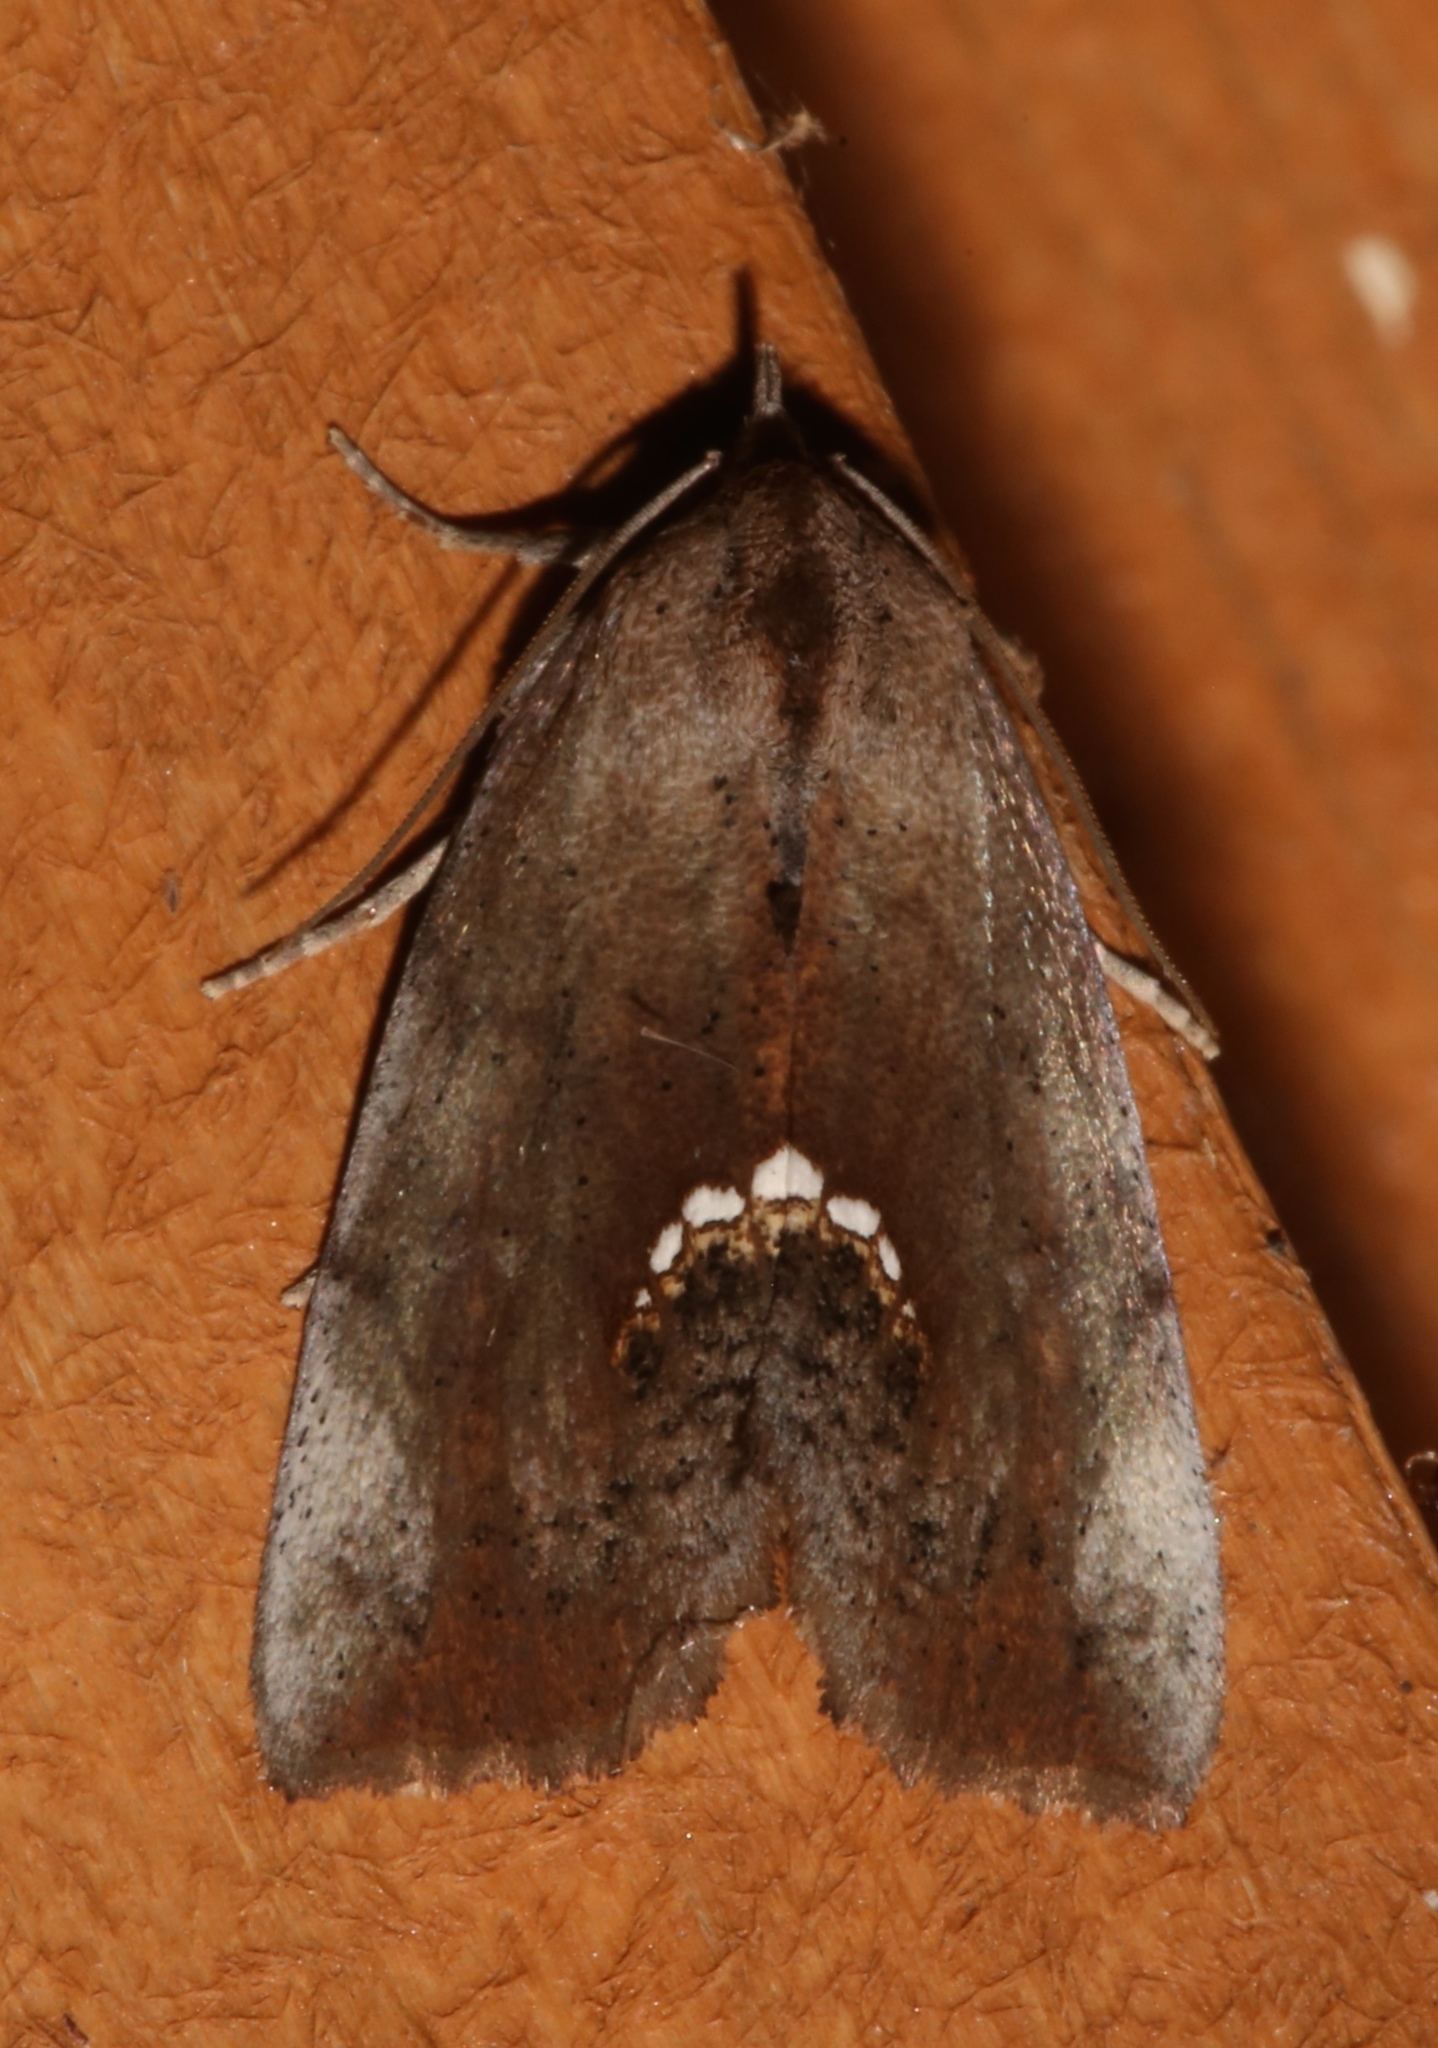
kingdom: Animalia
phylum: Arthropoda
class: Insecta
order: Lepidoptera
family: Erebidae
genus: Hypsoropha
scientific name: Hypsoropha hormos
